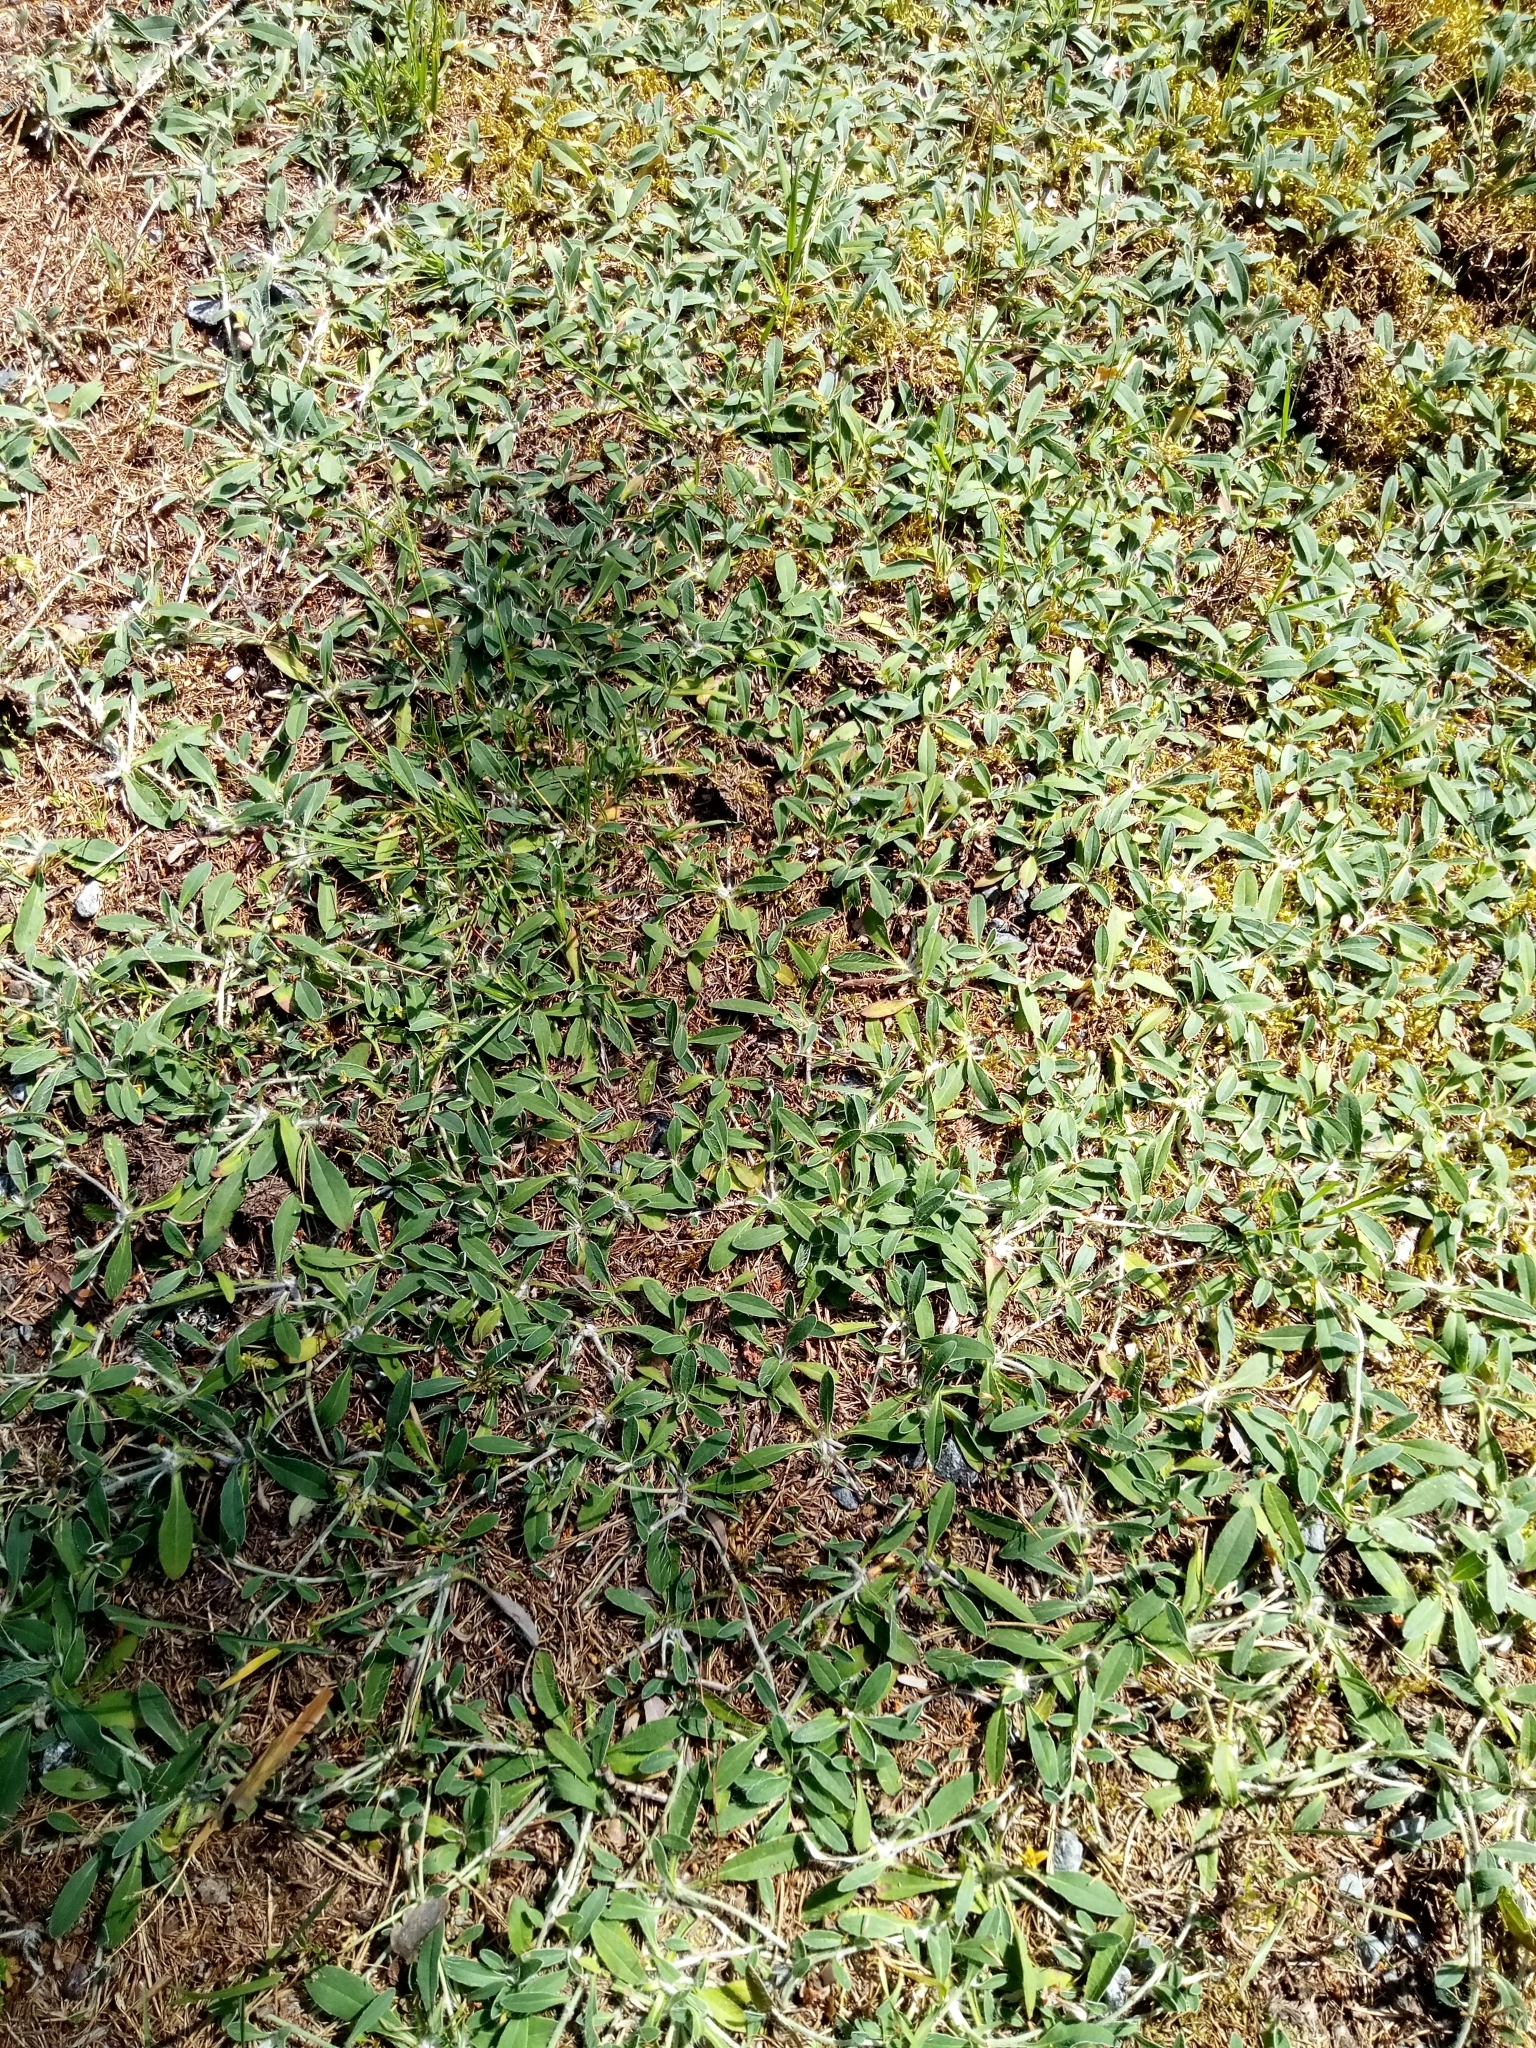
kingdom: Plantae
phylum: Tracheophyta
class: Magnoliopsida
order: Asterales
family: Asteraceae
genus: Pilosella
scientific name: Pilosella officinarum
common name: Mouse-ear hawkweed
